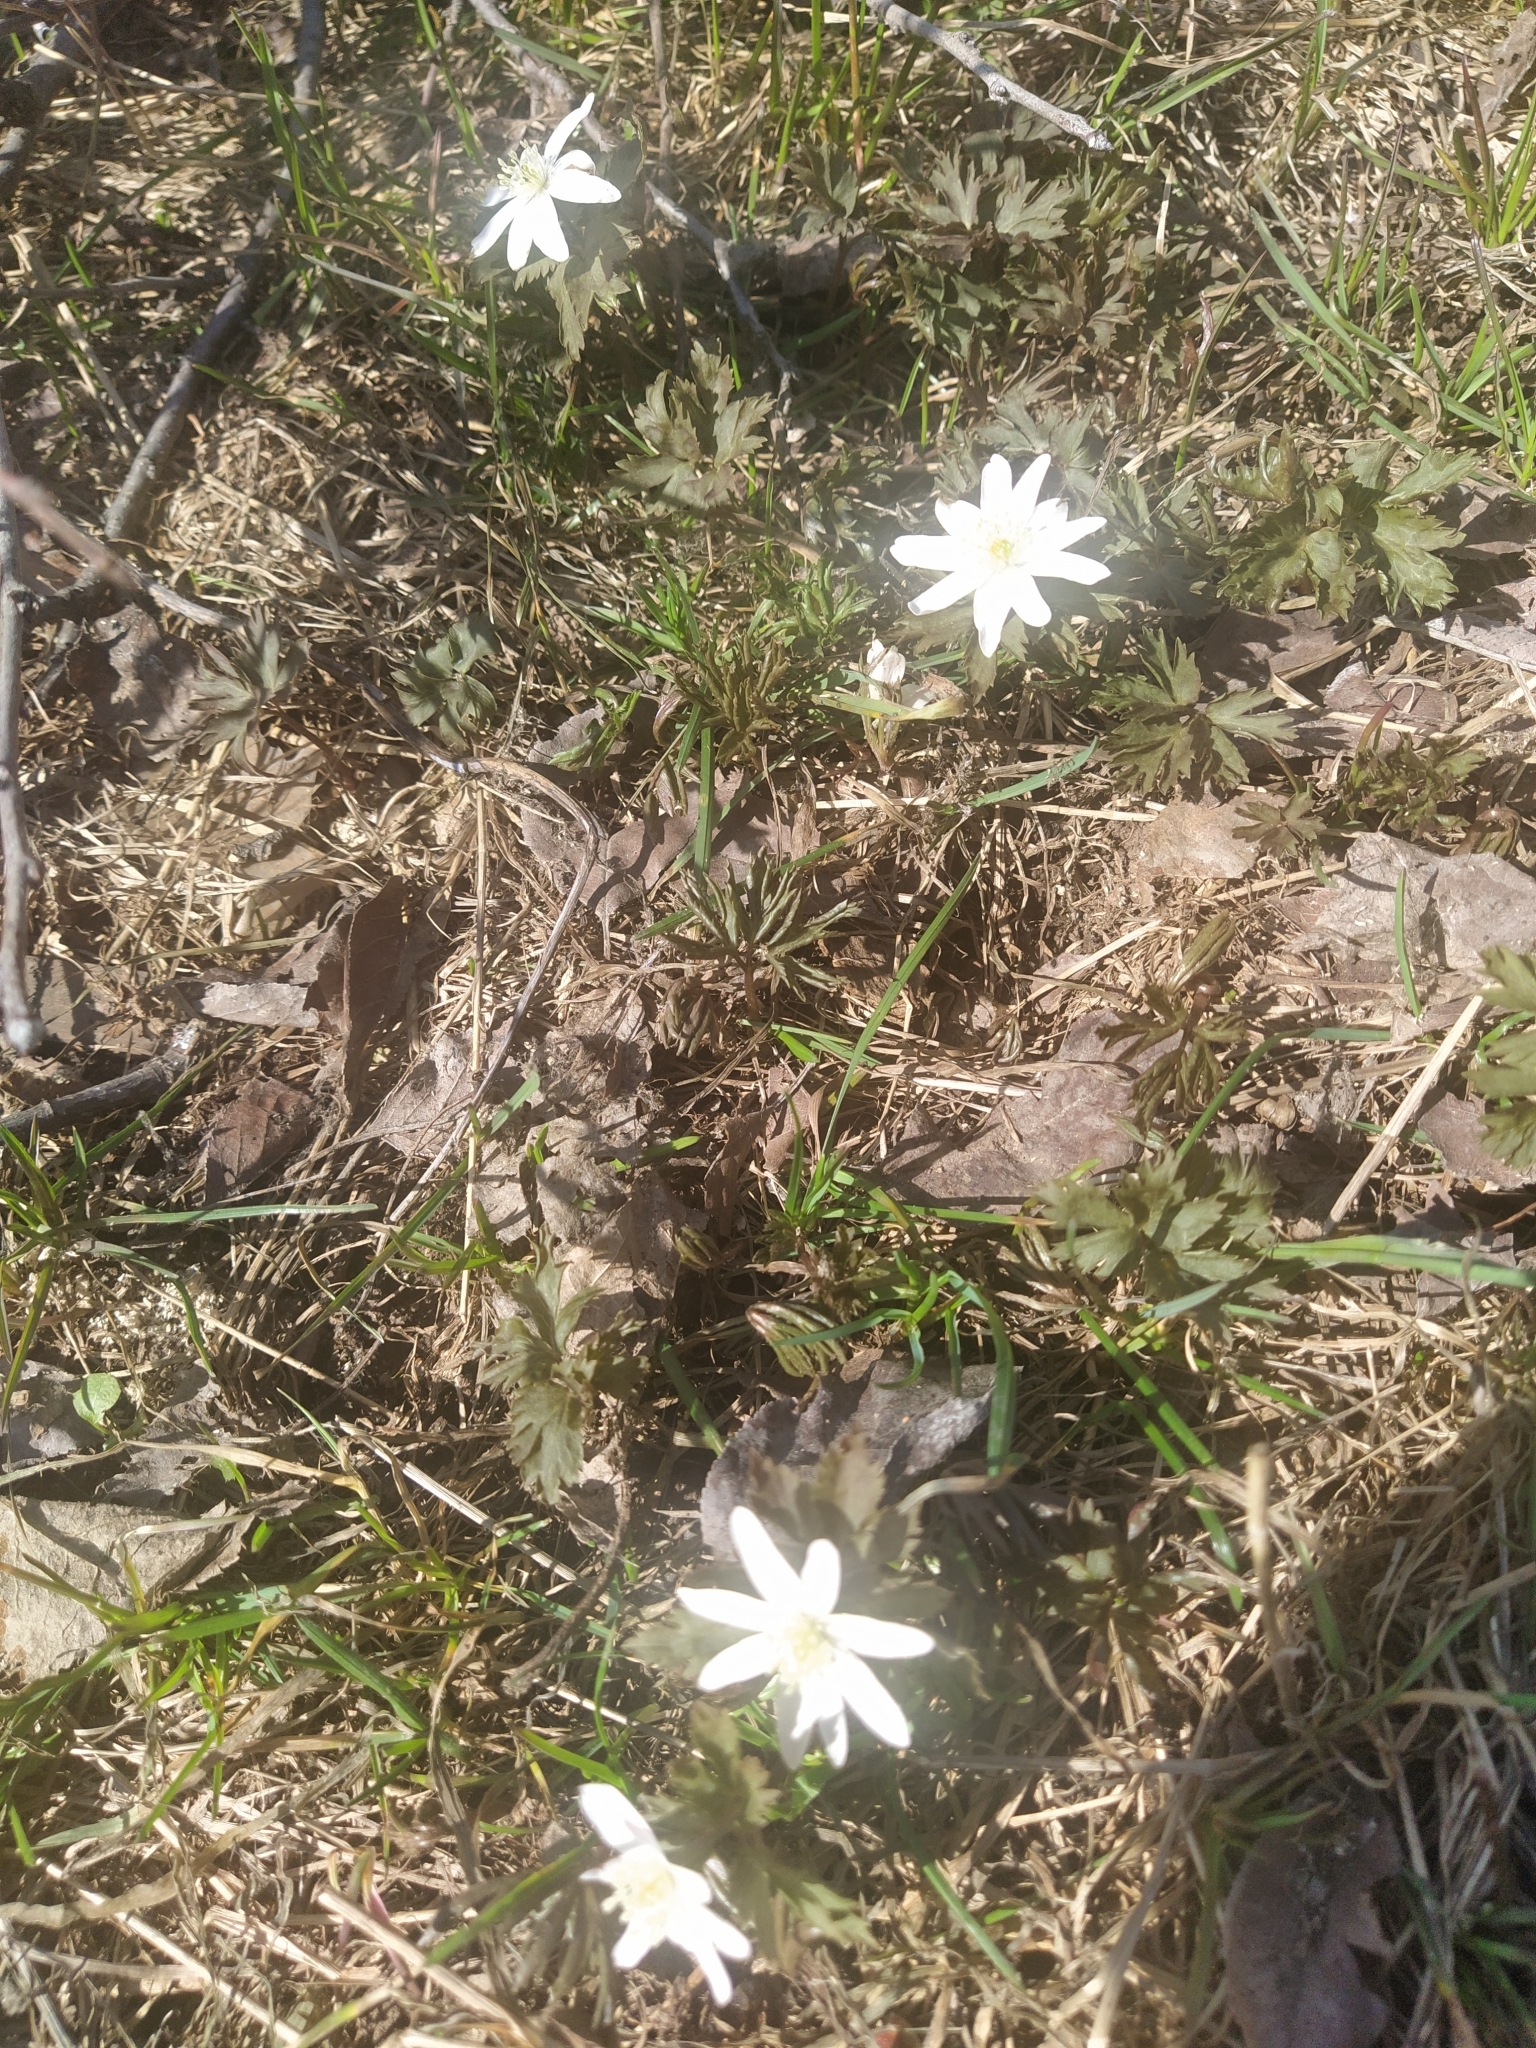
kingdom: Plantae
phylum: Tracheophyta
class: Magnoliopsida
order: Ranunculales
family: Ranunculaceae
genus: Anemone
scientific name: Anemone altaica
